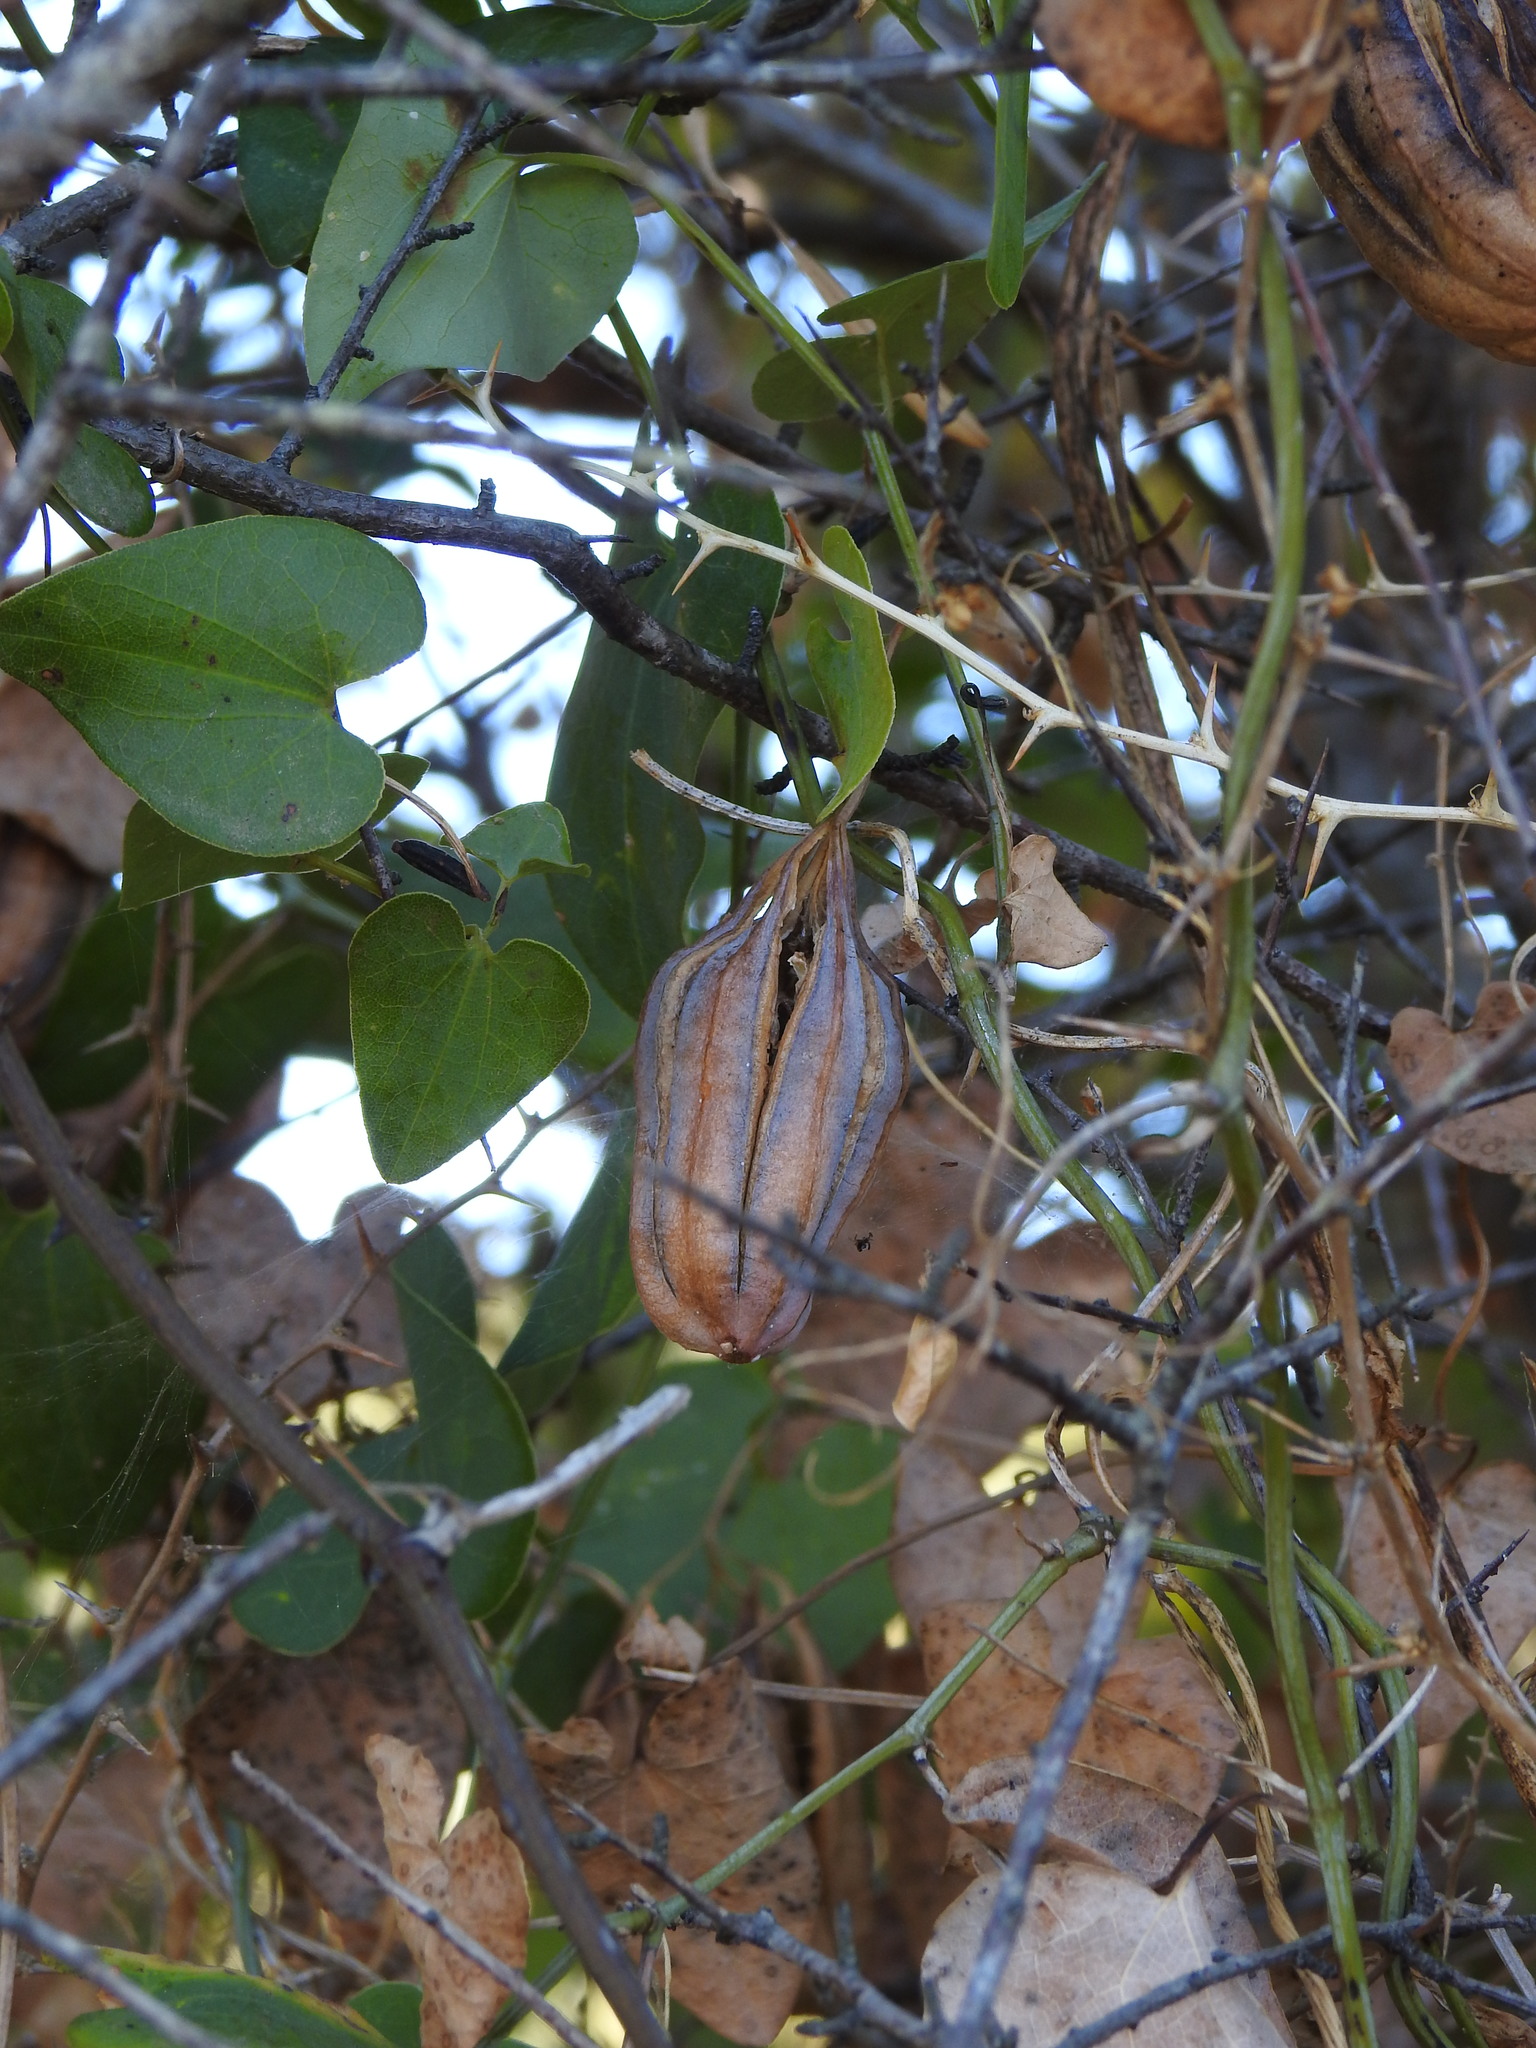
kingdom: Plantae
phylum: Tracheophyta
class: Magnoliopsida
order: Piperales
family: Aristolochiaceae
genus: Aristolochia
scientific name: Aristolochia baetica
